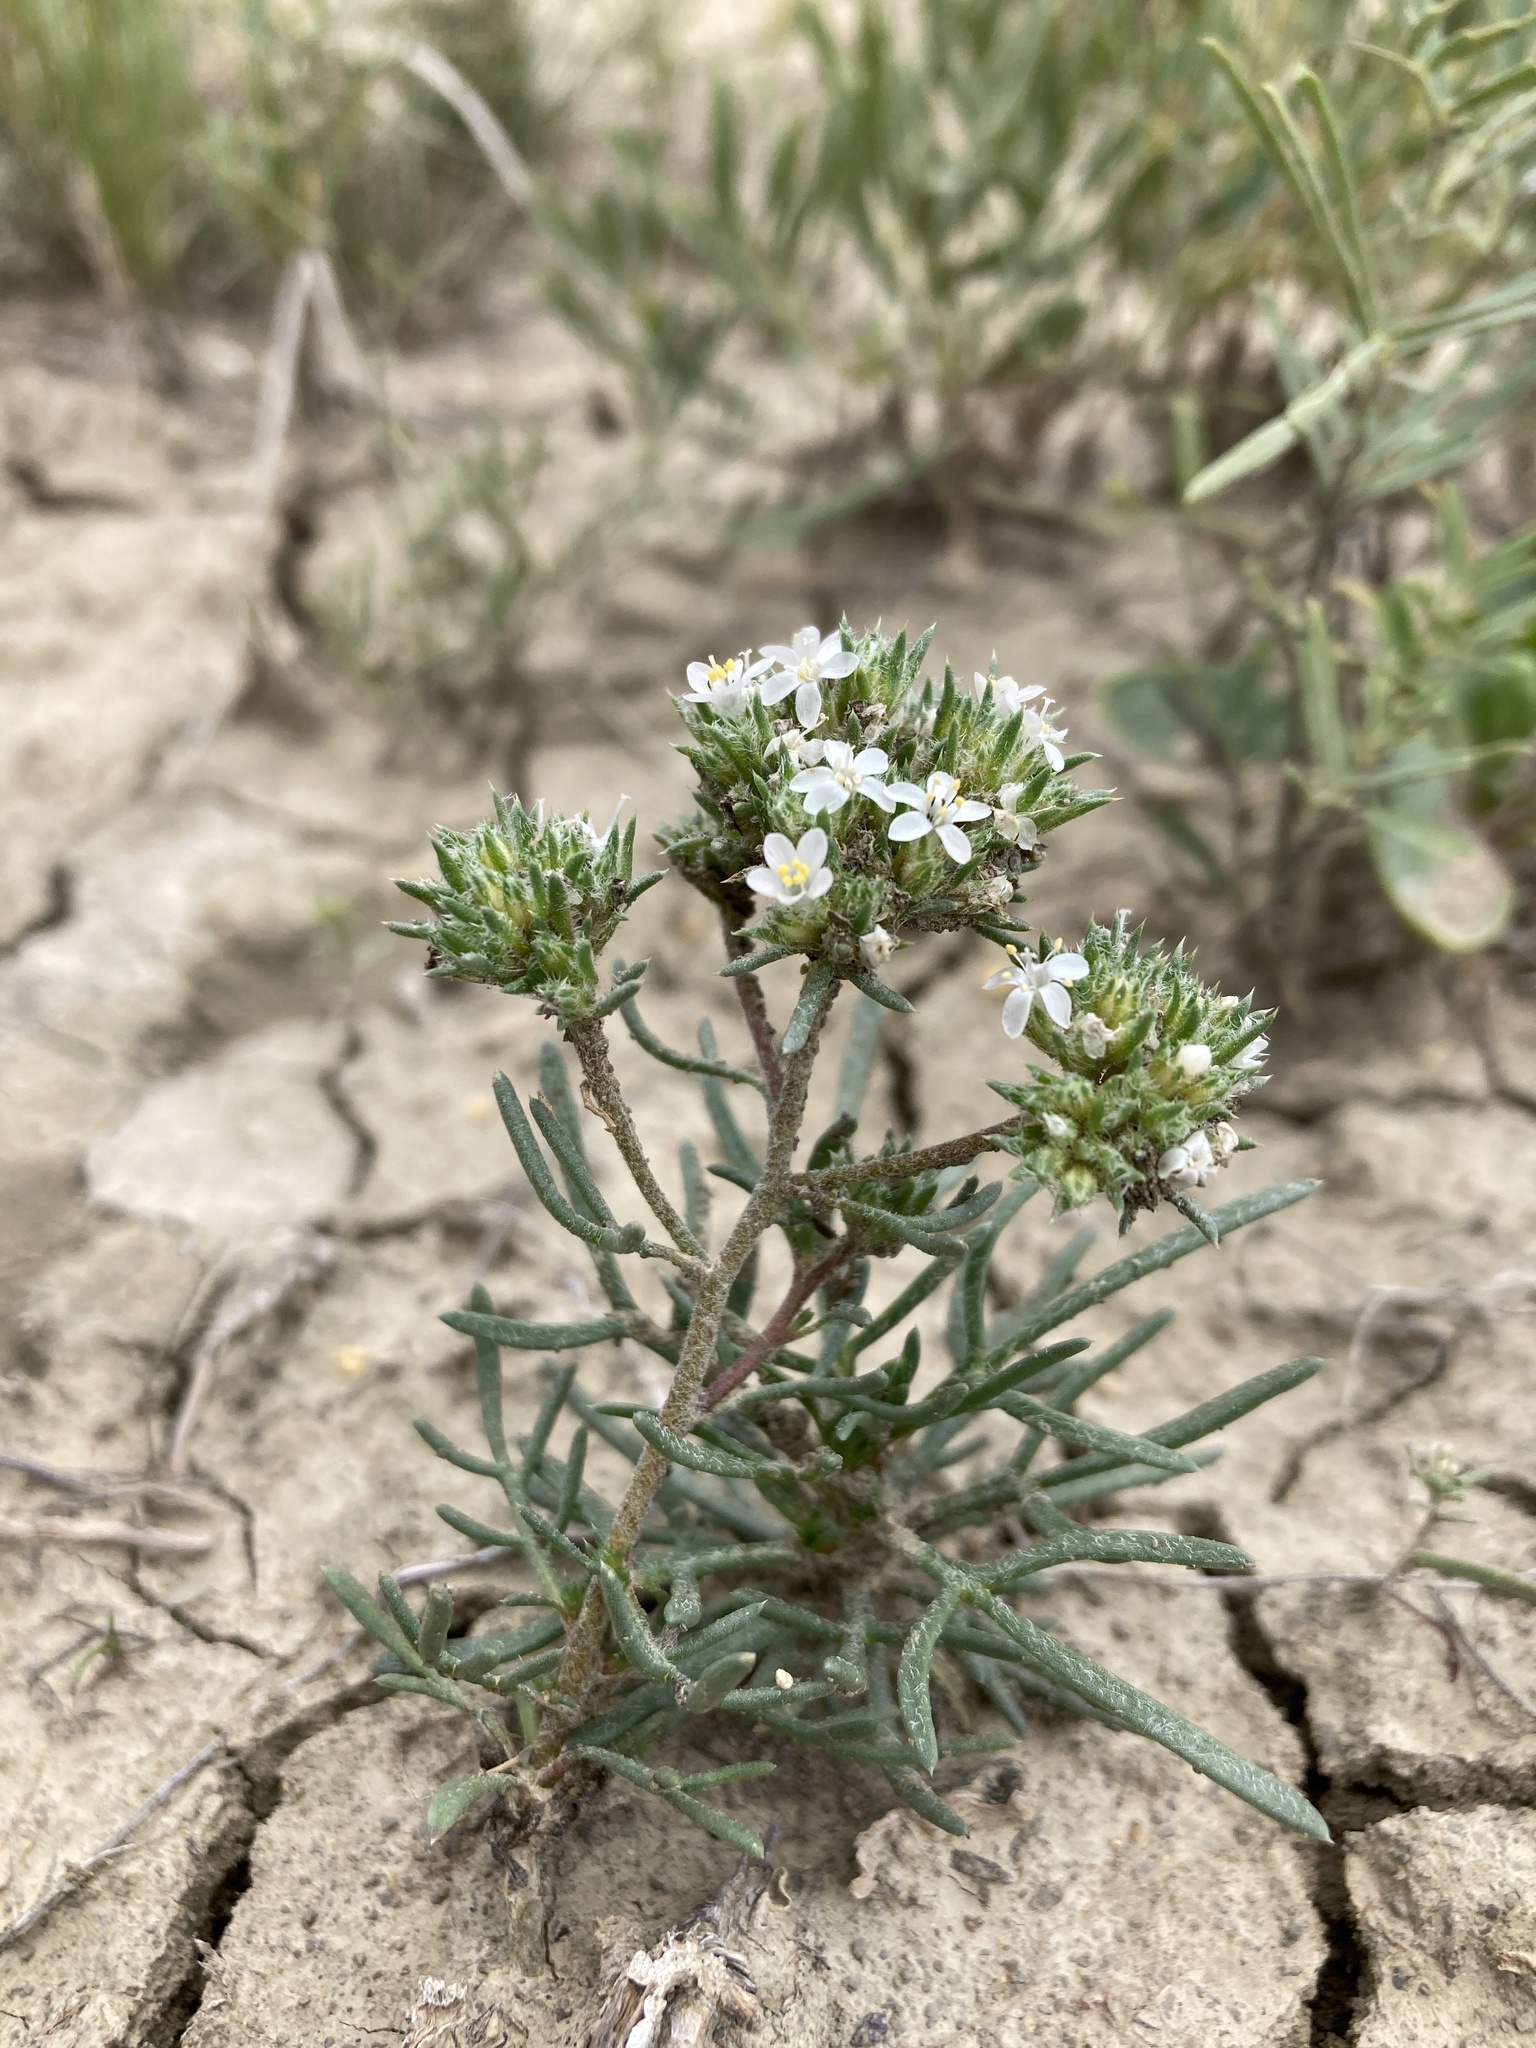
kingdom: Plantae
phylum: Tracheophyta
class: Magnoliopsida
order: Ericales
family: Polemoniaceae
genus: Ipomopsis
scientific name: Ipomopsis congesta
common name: Ball-head gilia
